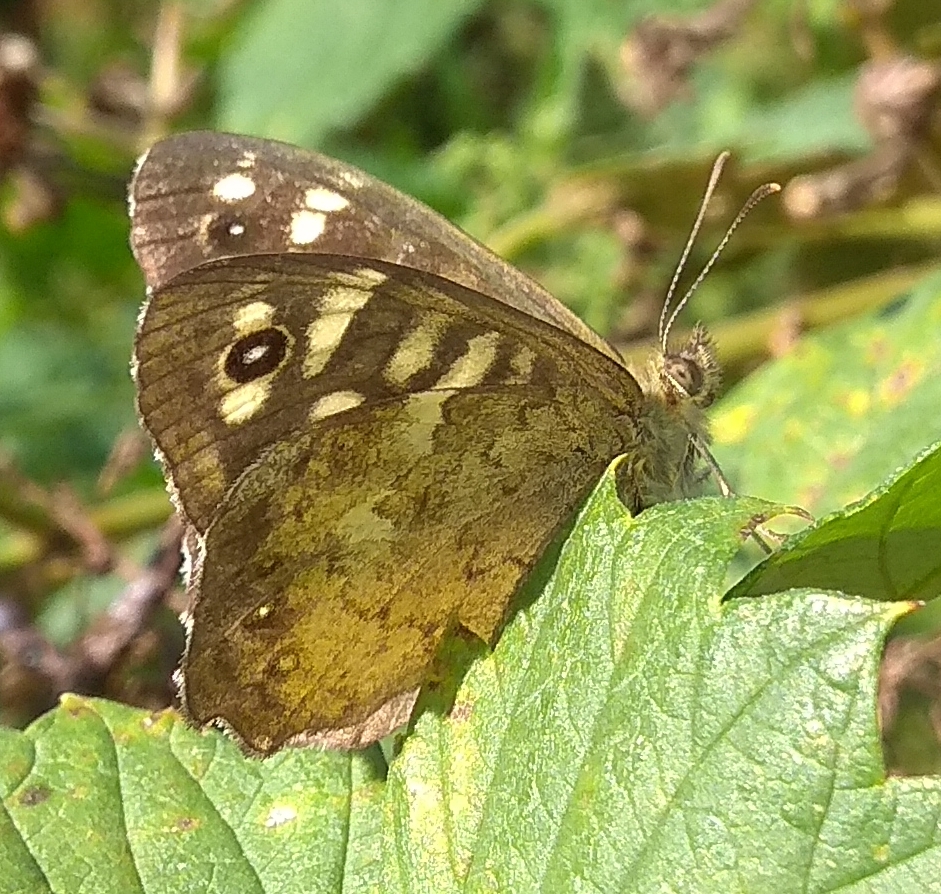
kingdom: Animalia
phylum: Arthropoda
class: Insecta
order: Lepidoptera
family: Nymphalidae
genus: Pararge
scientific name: Pararge aegeria
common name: Speckled wood
